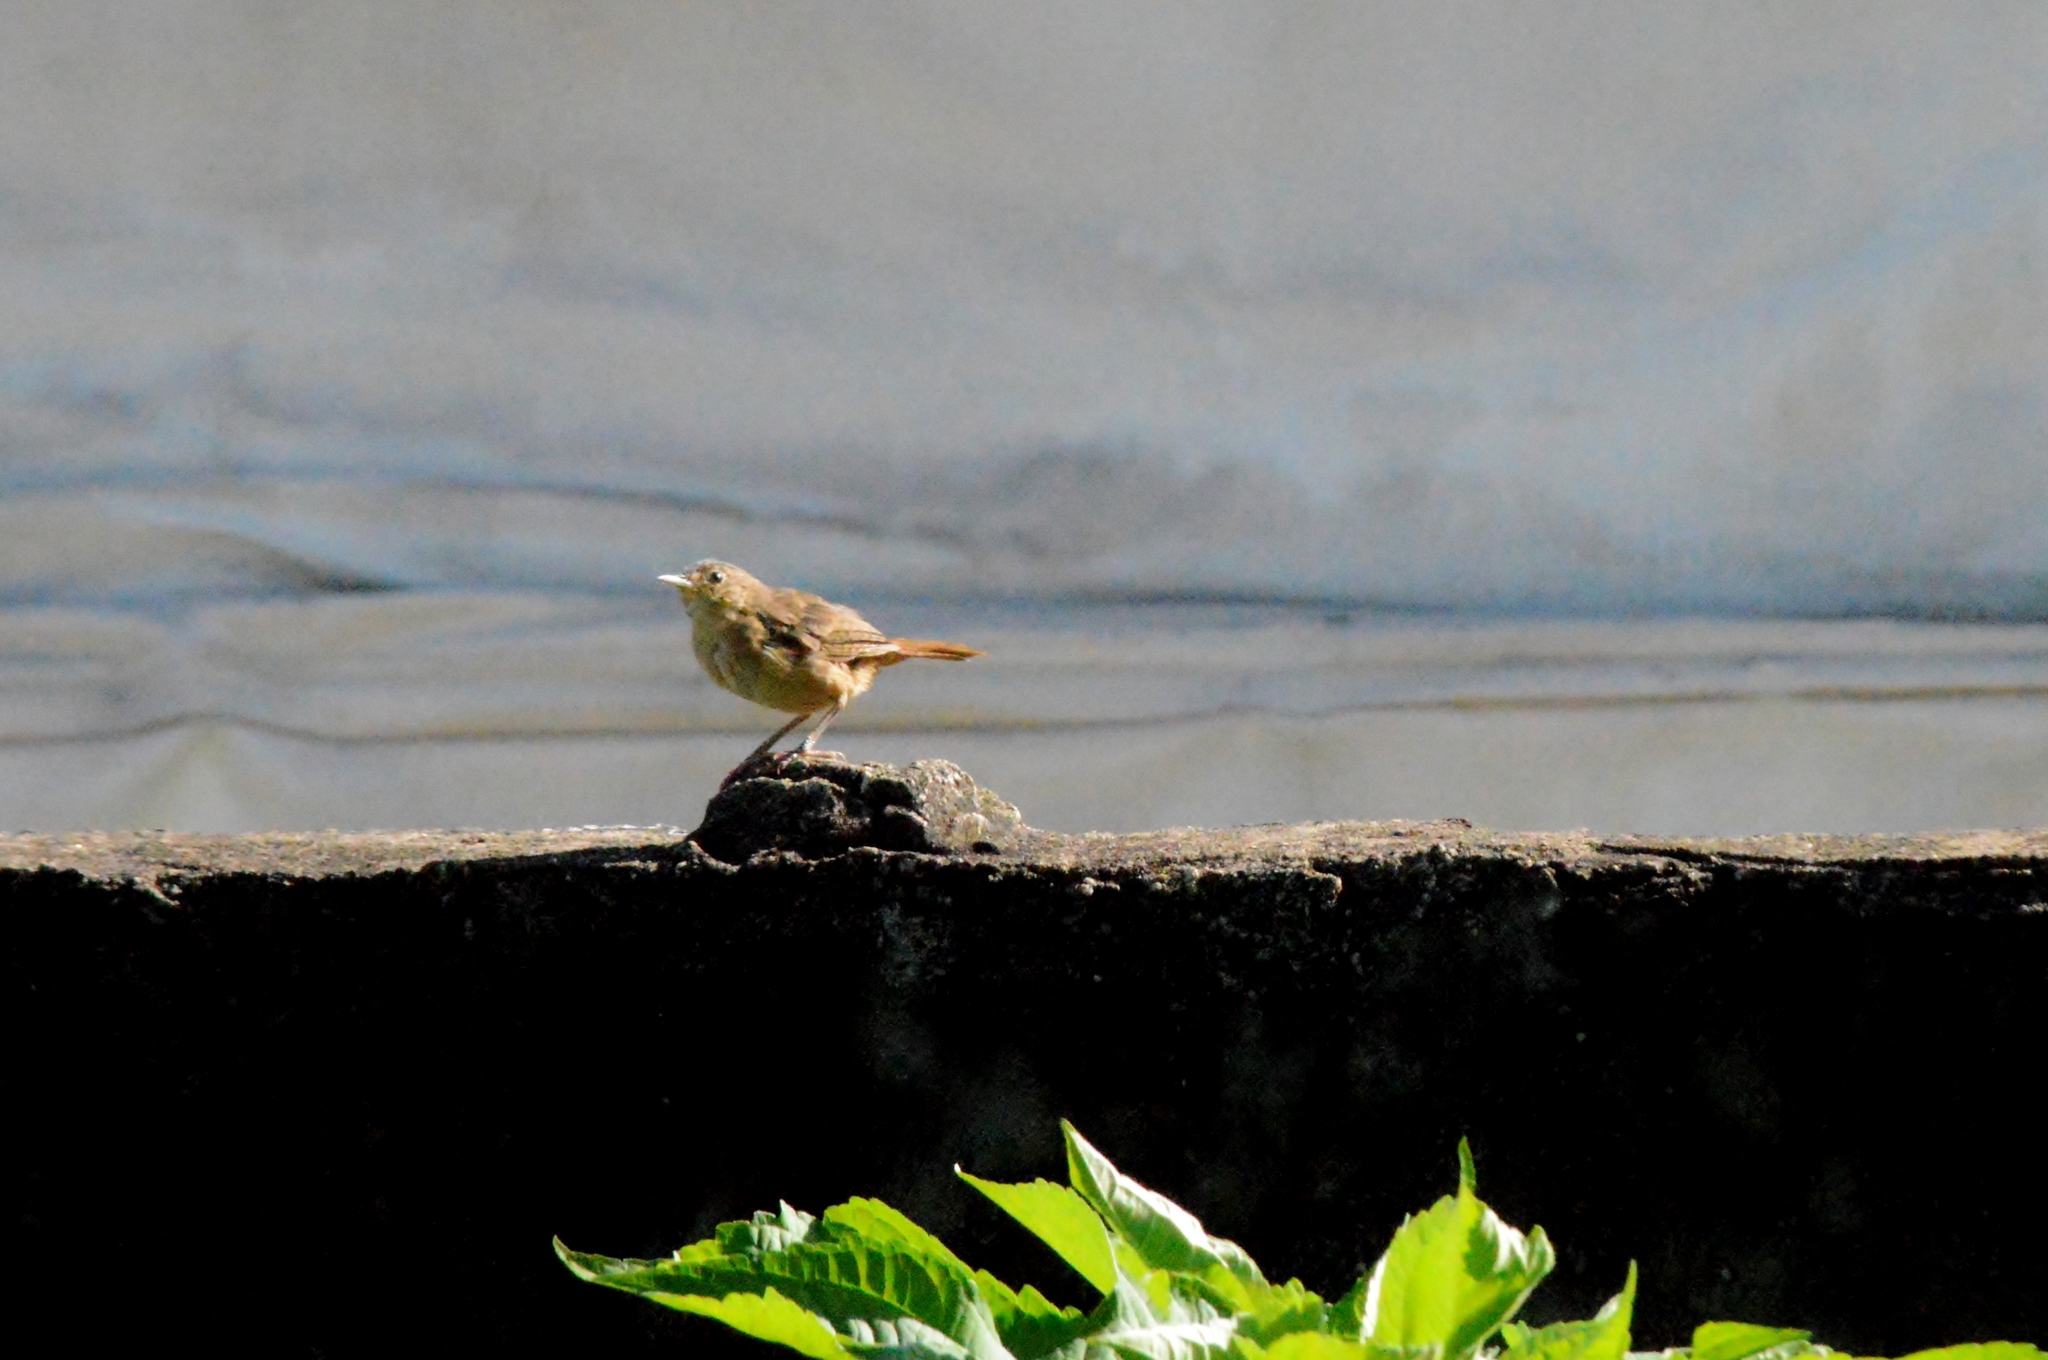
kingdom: Animalia
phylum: Chordata
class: Aves
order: Passeriformes
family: Troglodytidae
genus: Troglodytes
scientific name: Troglodytes aedon
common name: House wren
